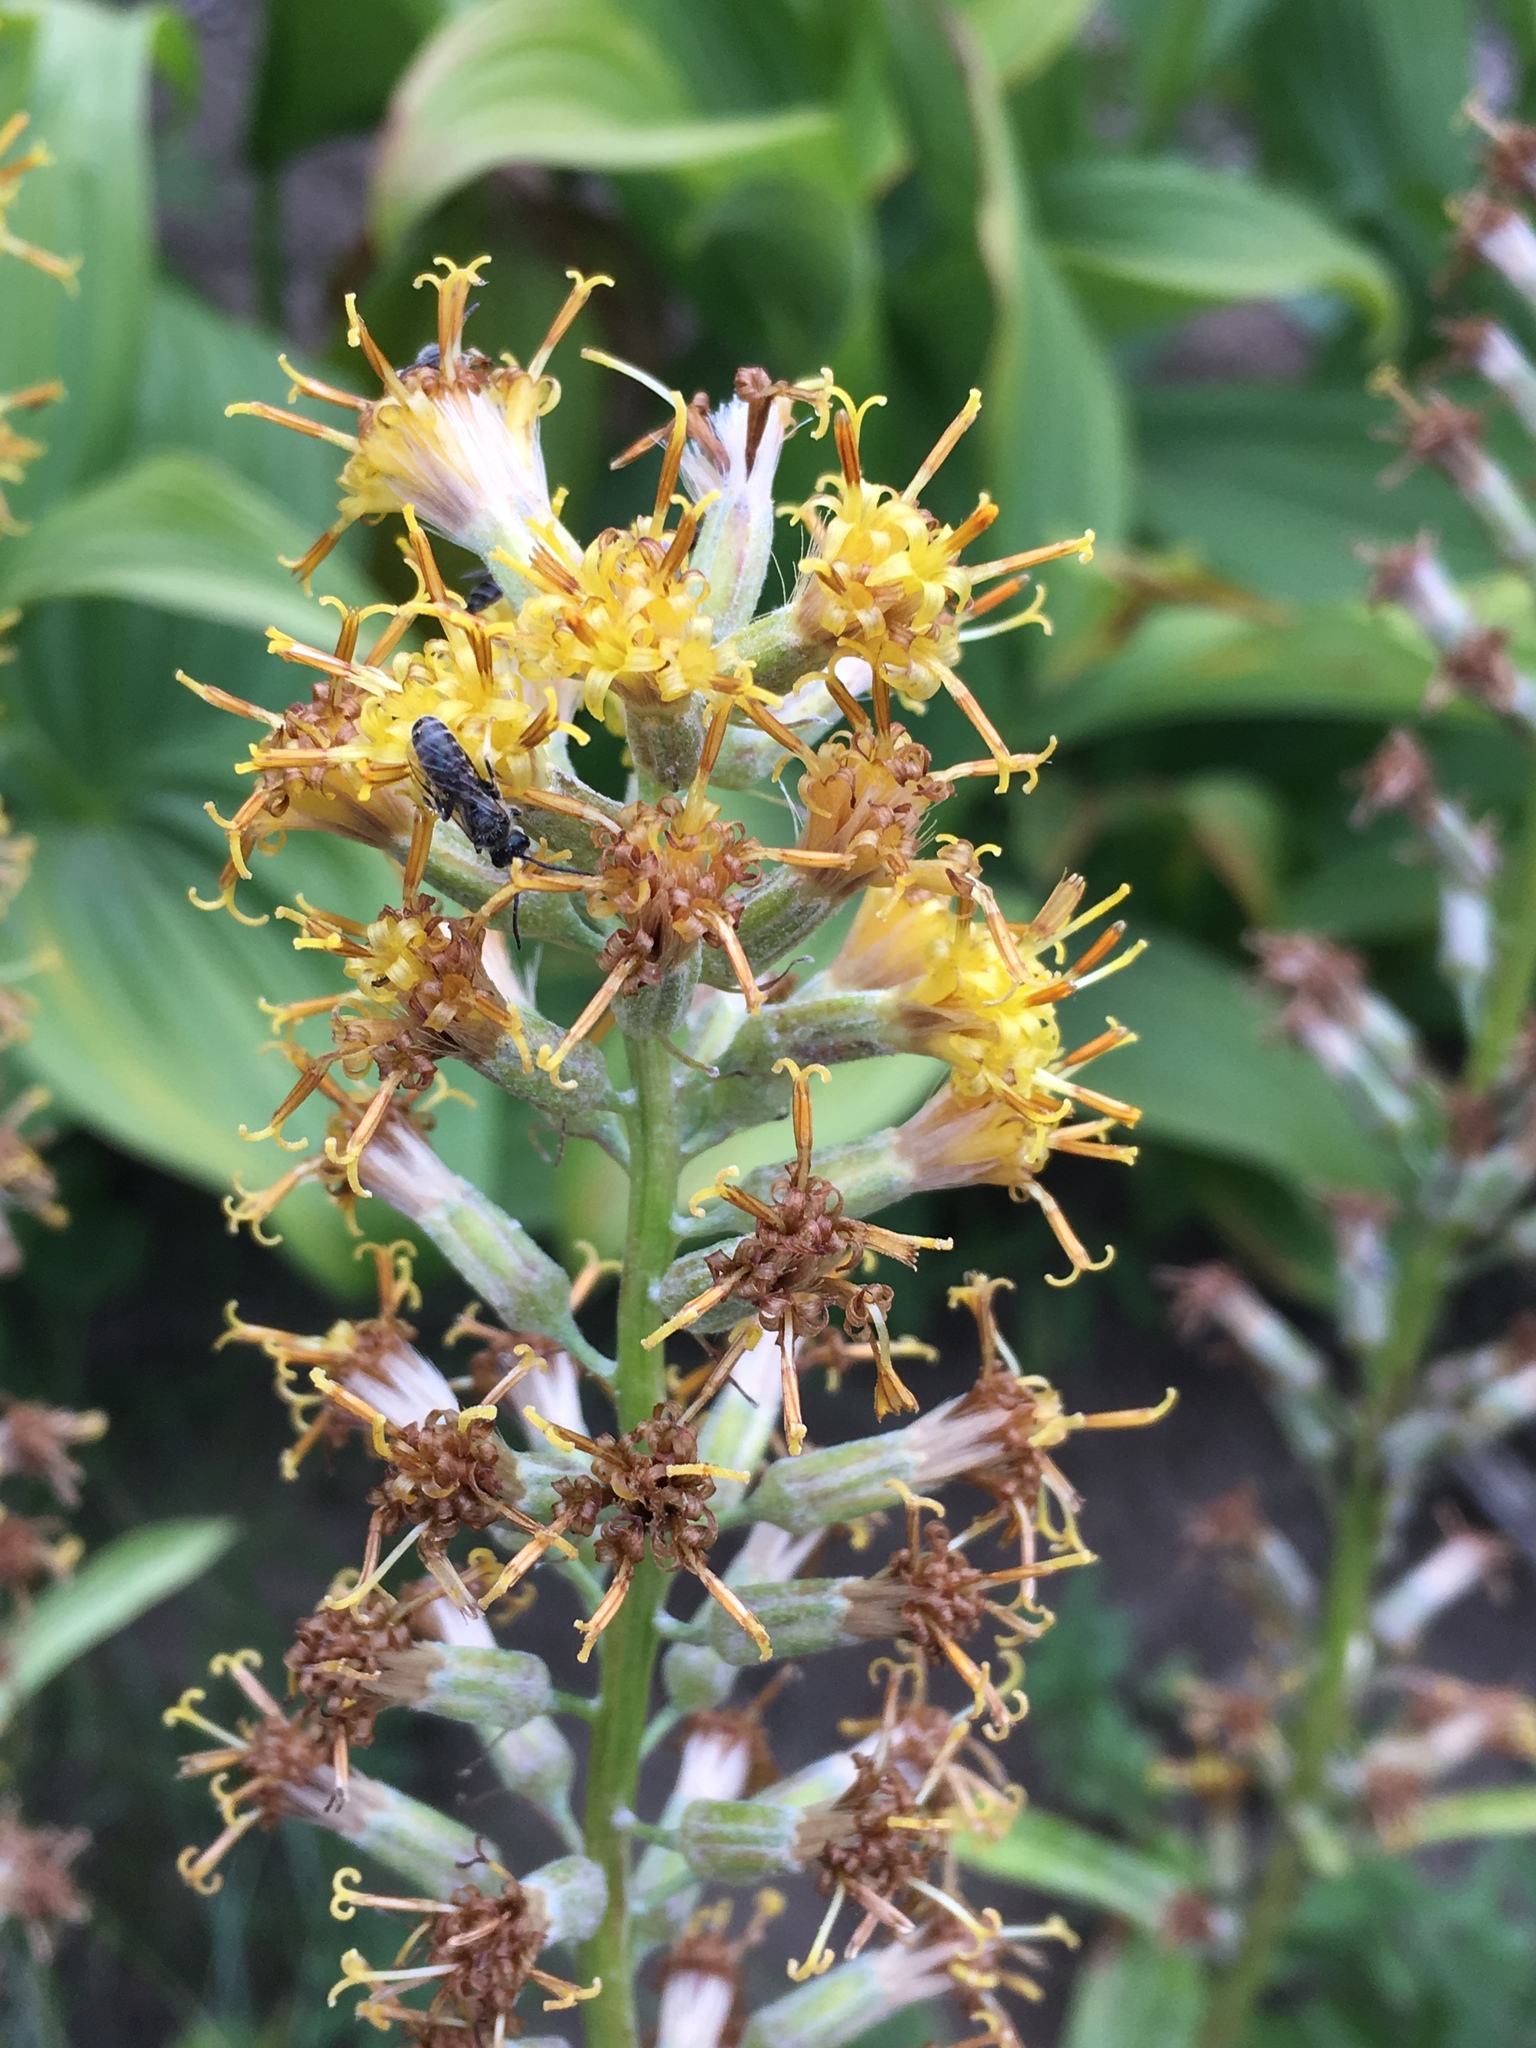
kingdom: Plantae
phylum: Tracheophyta
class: Magnoliopsida
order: Asterales
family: Asteraceae
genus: Rainiera
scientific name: Rainiera stricta
